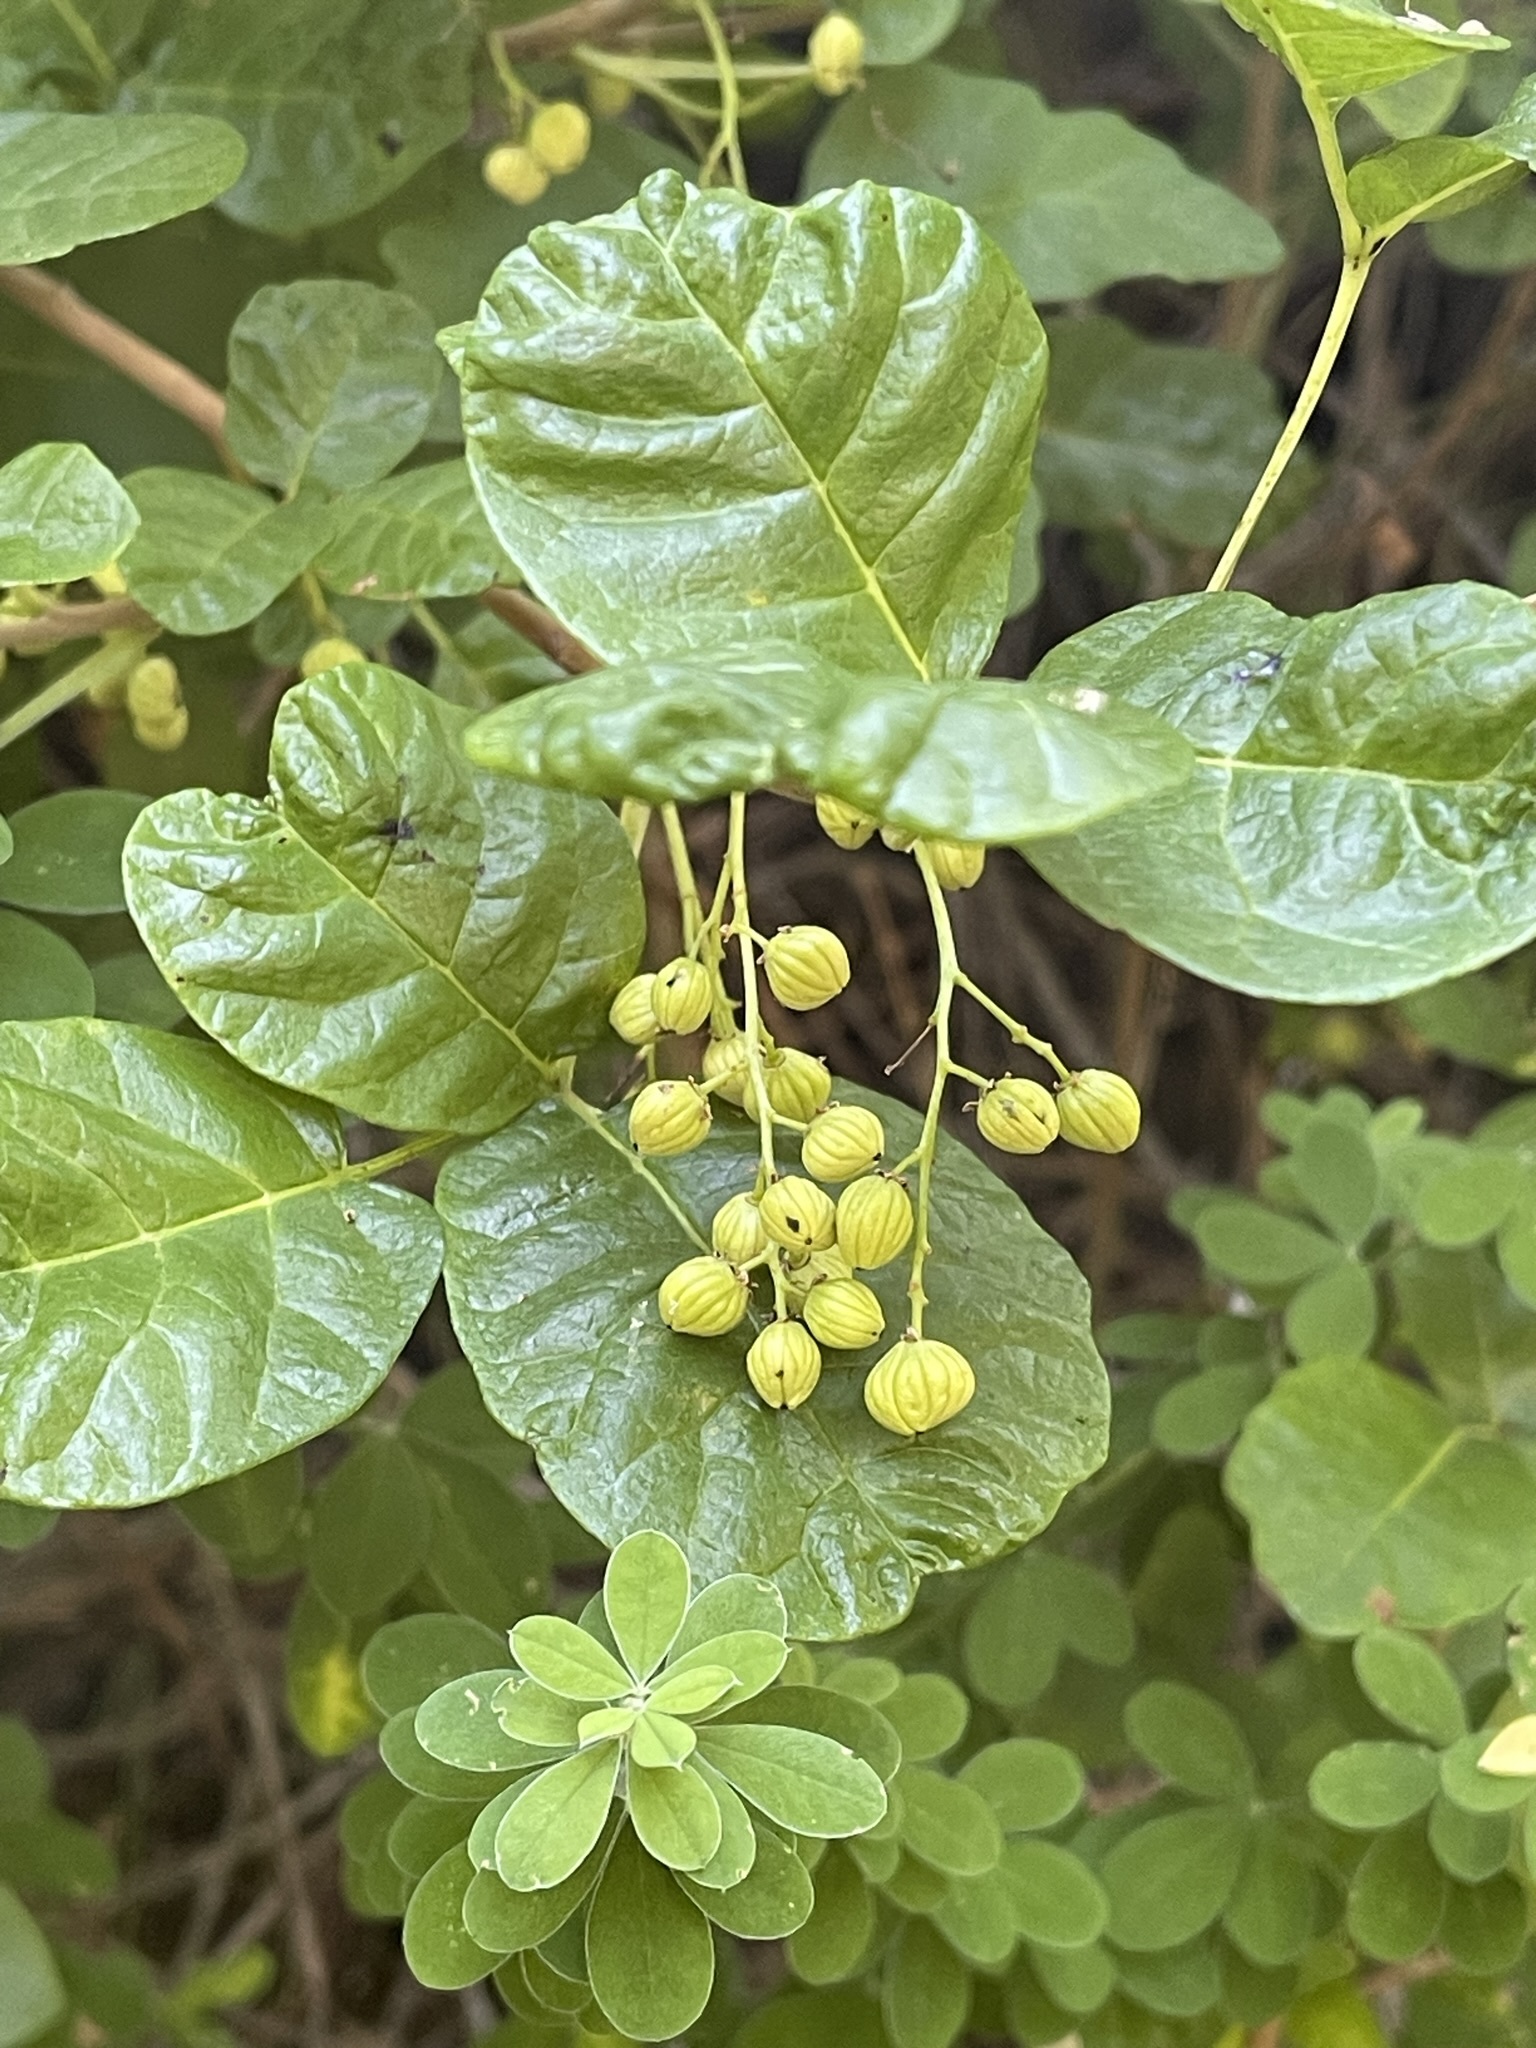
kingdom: Plantae
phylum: Tracheophyta
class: Magnoliopsida
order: Sapindales
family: Anacardiaceae
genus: Toxicodendron
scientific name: Toxicodendron diversilobum
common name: Pacific poison-oak
